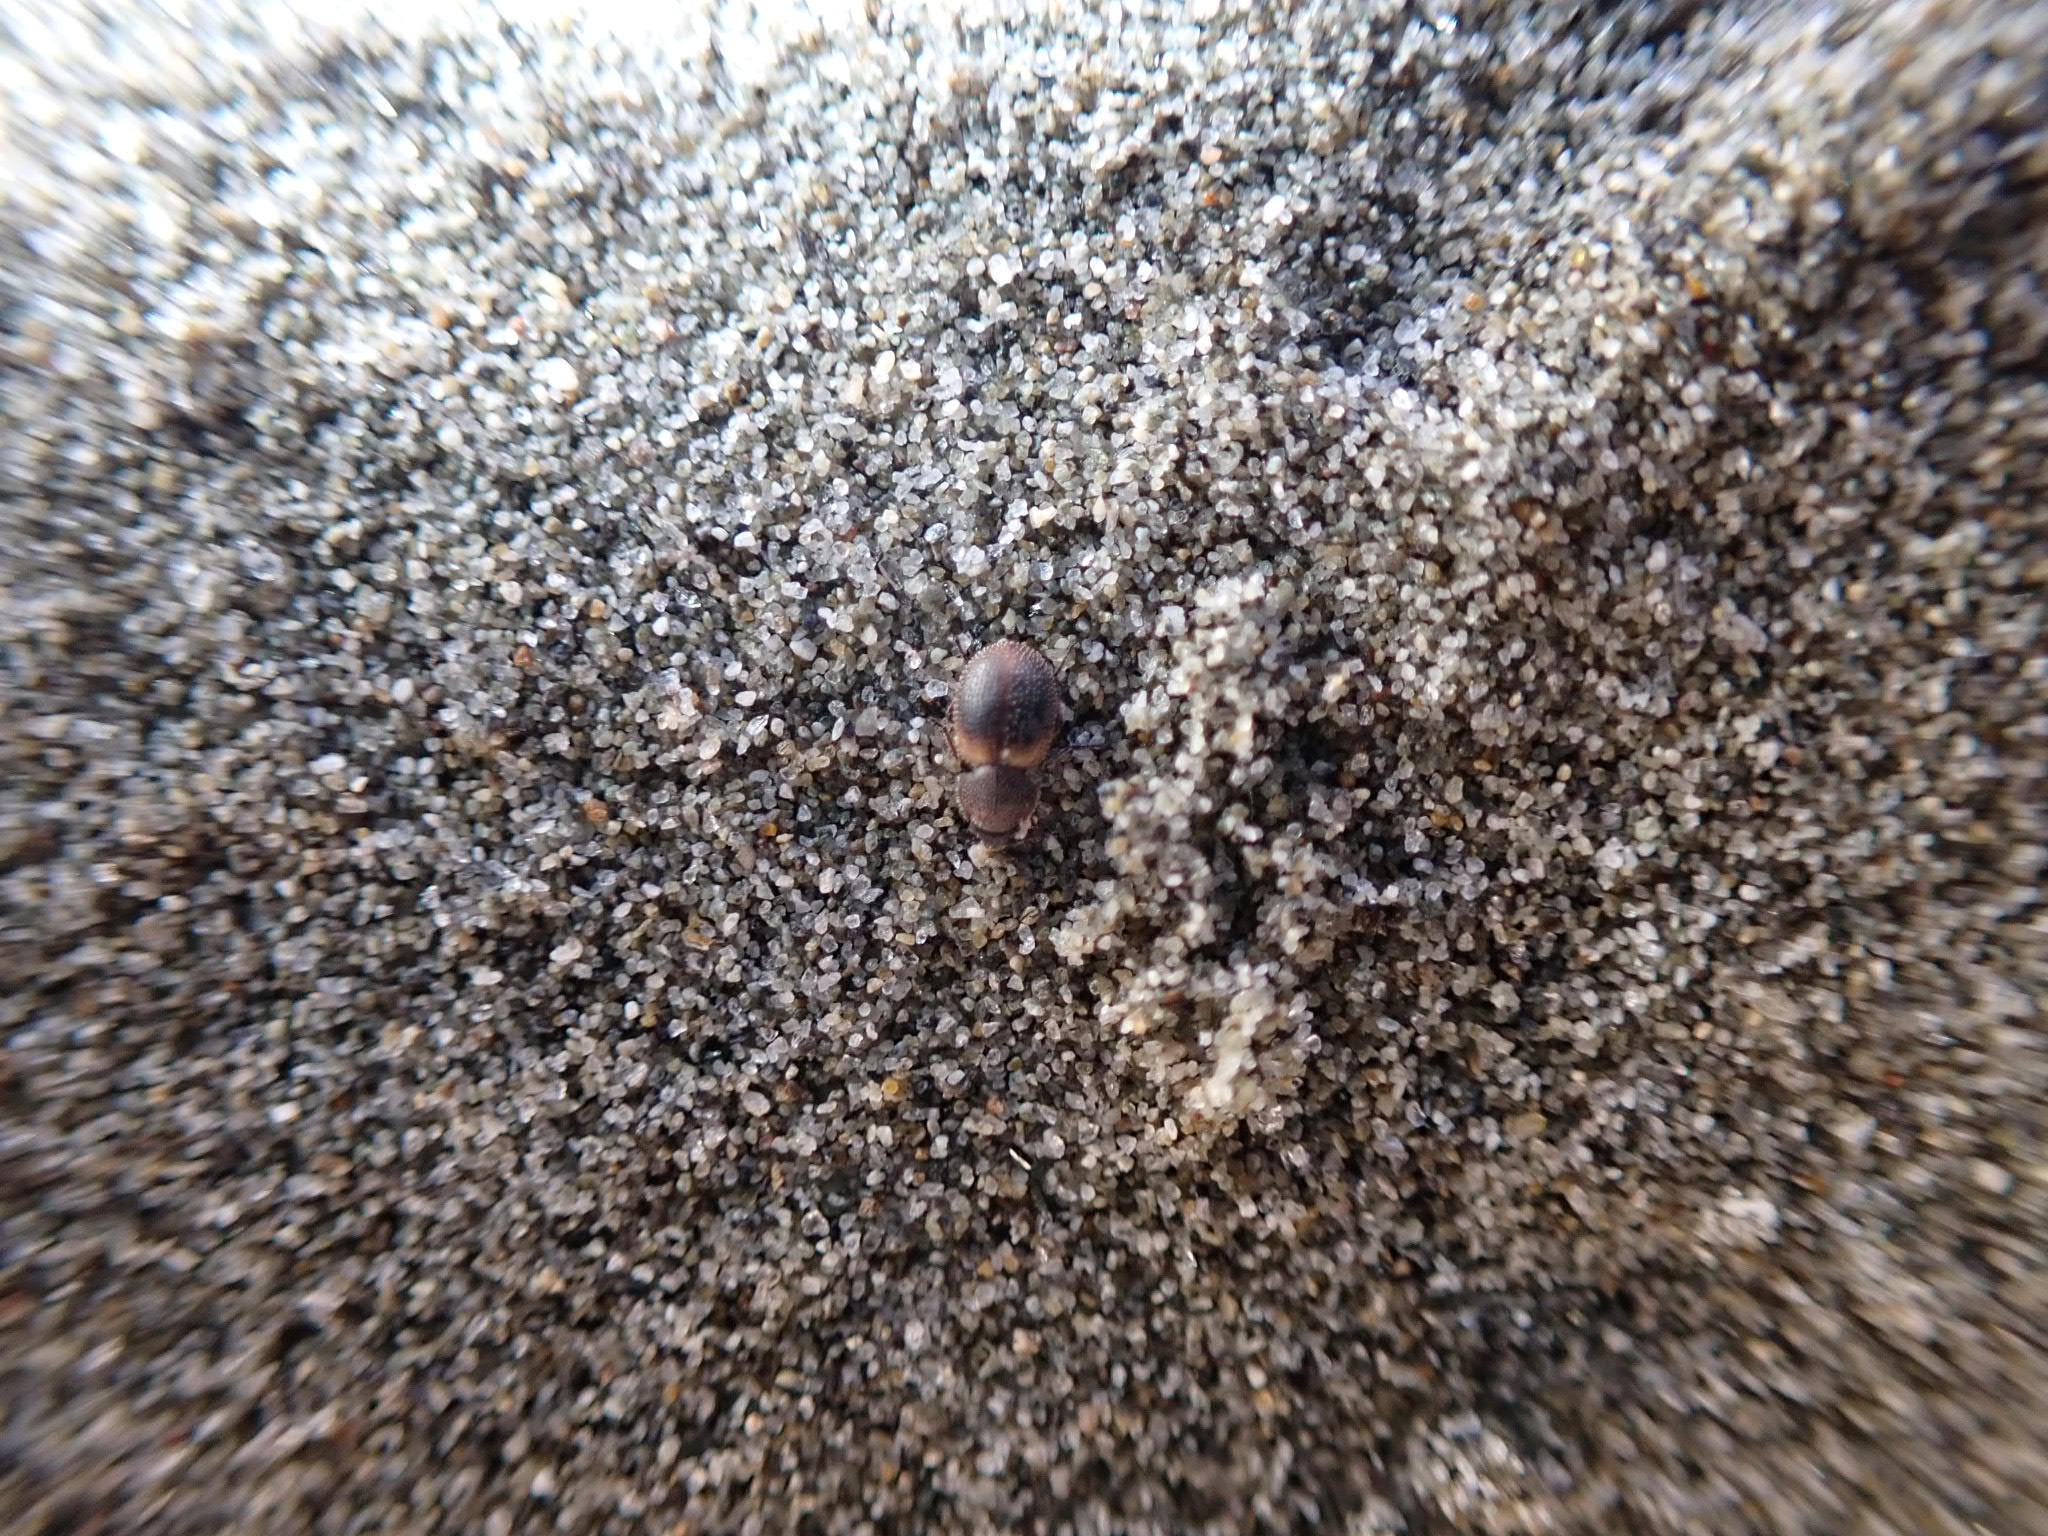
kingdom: Animalia
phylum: Arthropoda
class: Insecta
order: Coleoptera
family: Phycosecidae
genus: Phycosecis
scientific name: Phycosecis
